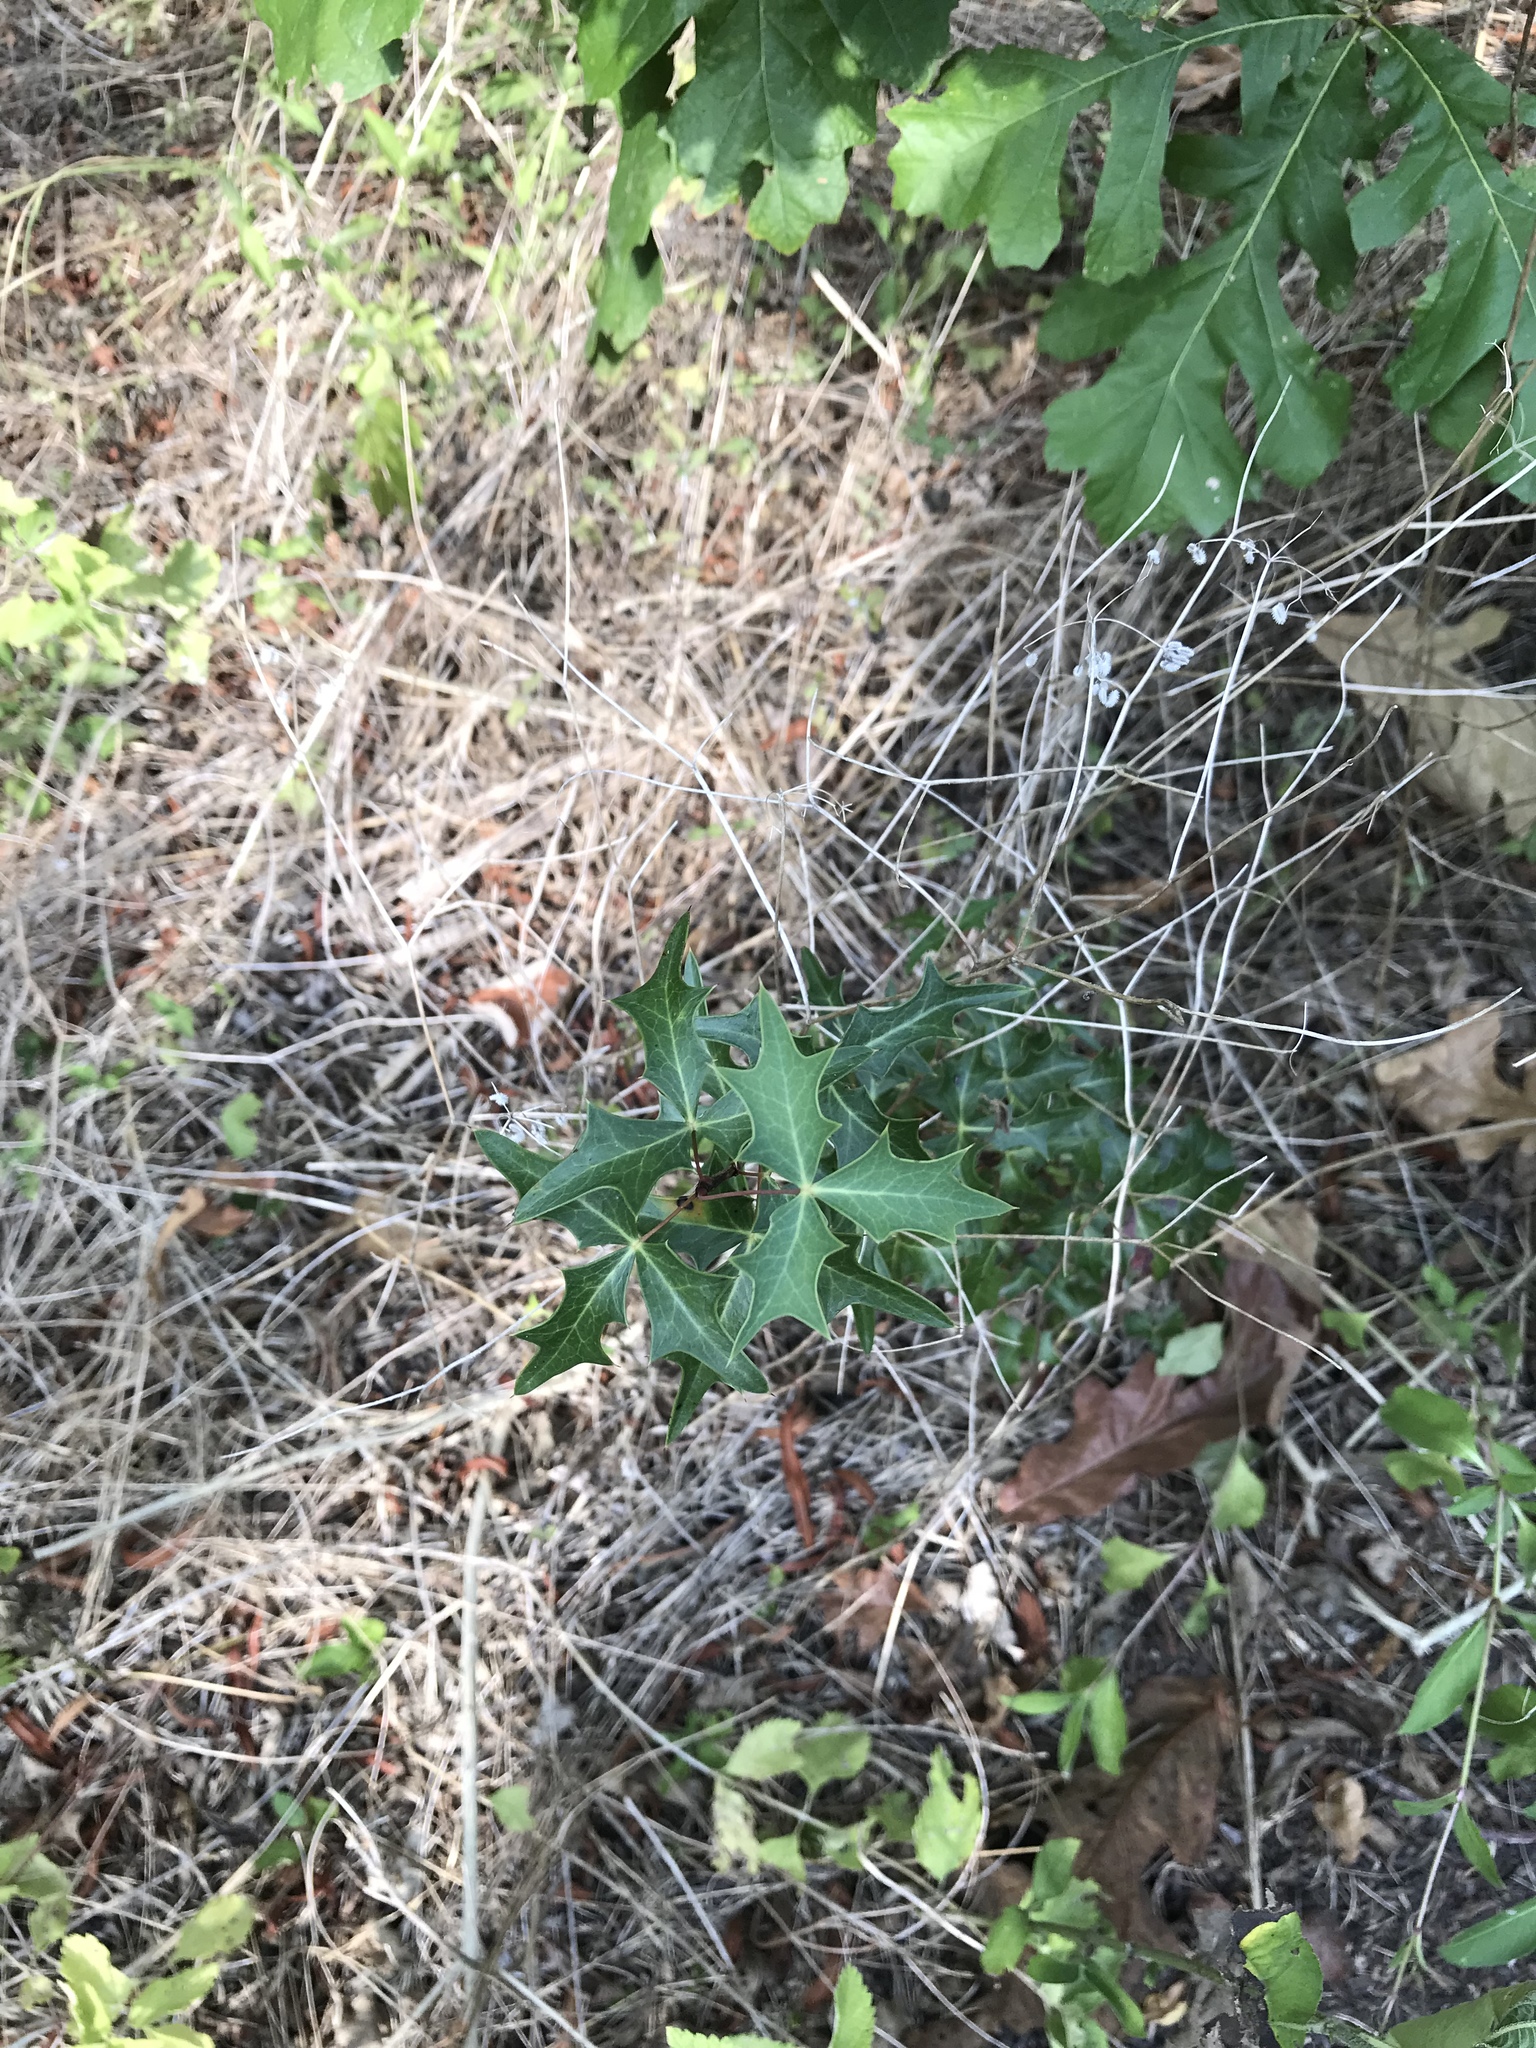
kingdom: Plantae
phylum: Tracheophyta
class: Magnoliopsida
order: Ranunculales
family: Berberidaceae
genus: Alloberberis
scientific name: Alloberberis trifoliolata
